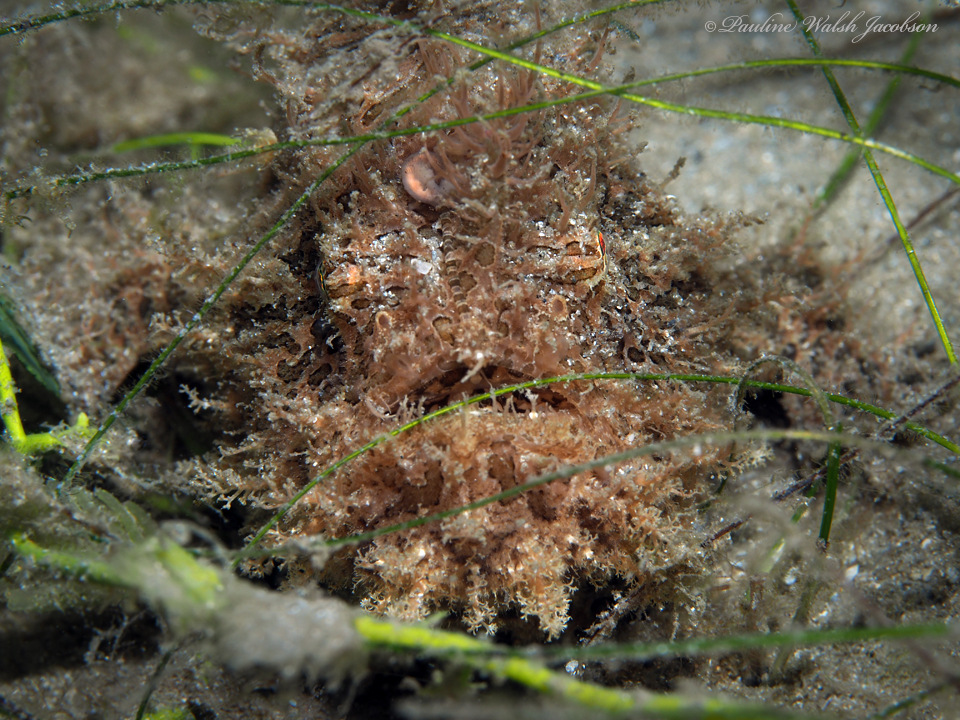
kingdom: Animalia
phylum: Chordata
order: Lophiiformes
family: Antennariidae
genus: Antennarius
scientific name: Antennarius striatus
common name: Striated frogfish
